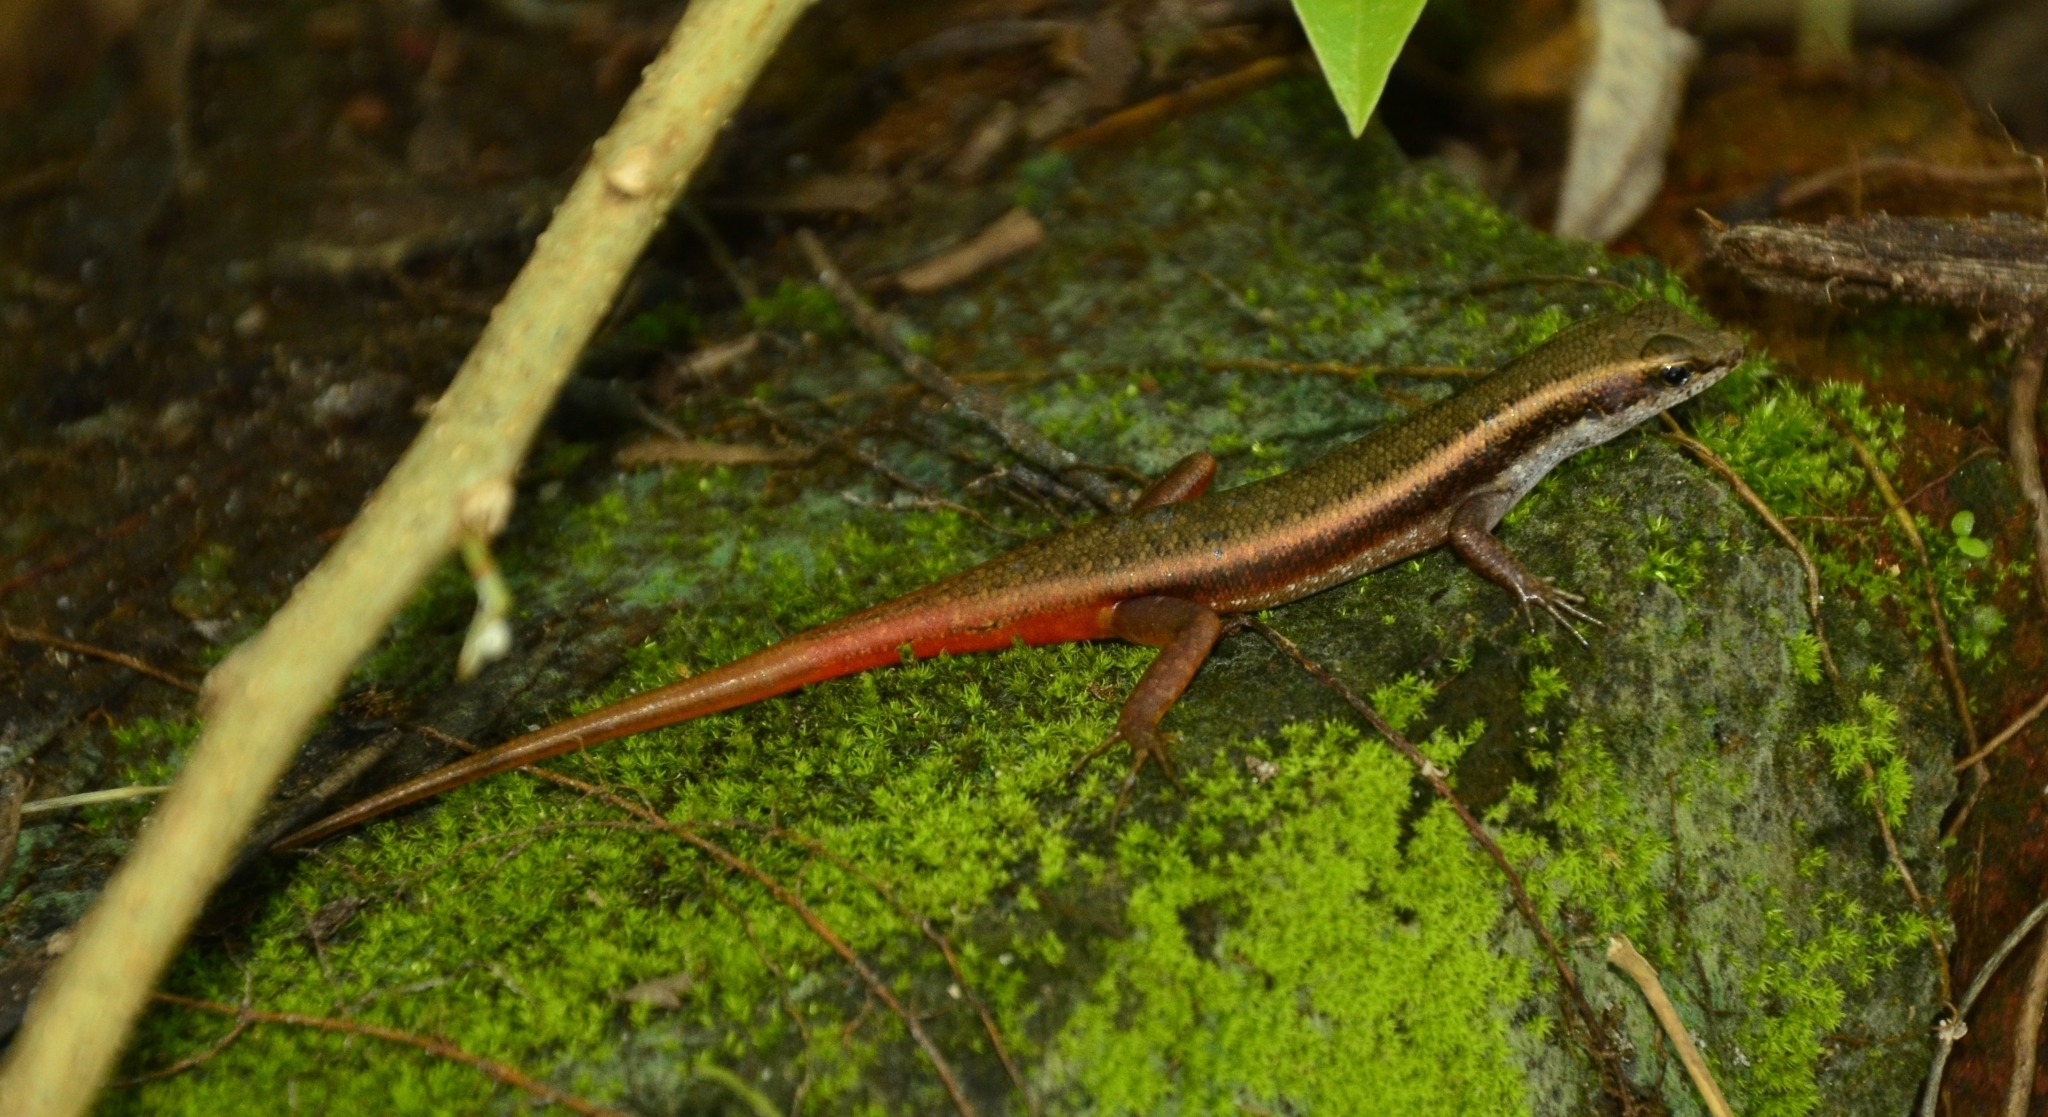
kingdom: Animalia
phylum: Chordata
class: Squamata
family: Scincidae
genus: Sphenomorphus
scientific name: Sphenomorphus dussumieri
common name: Dussumier's forest skink
